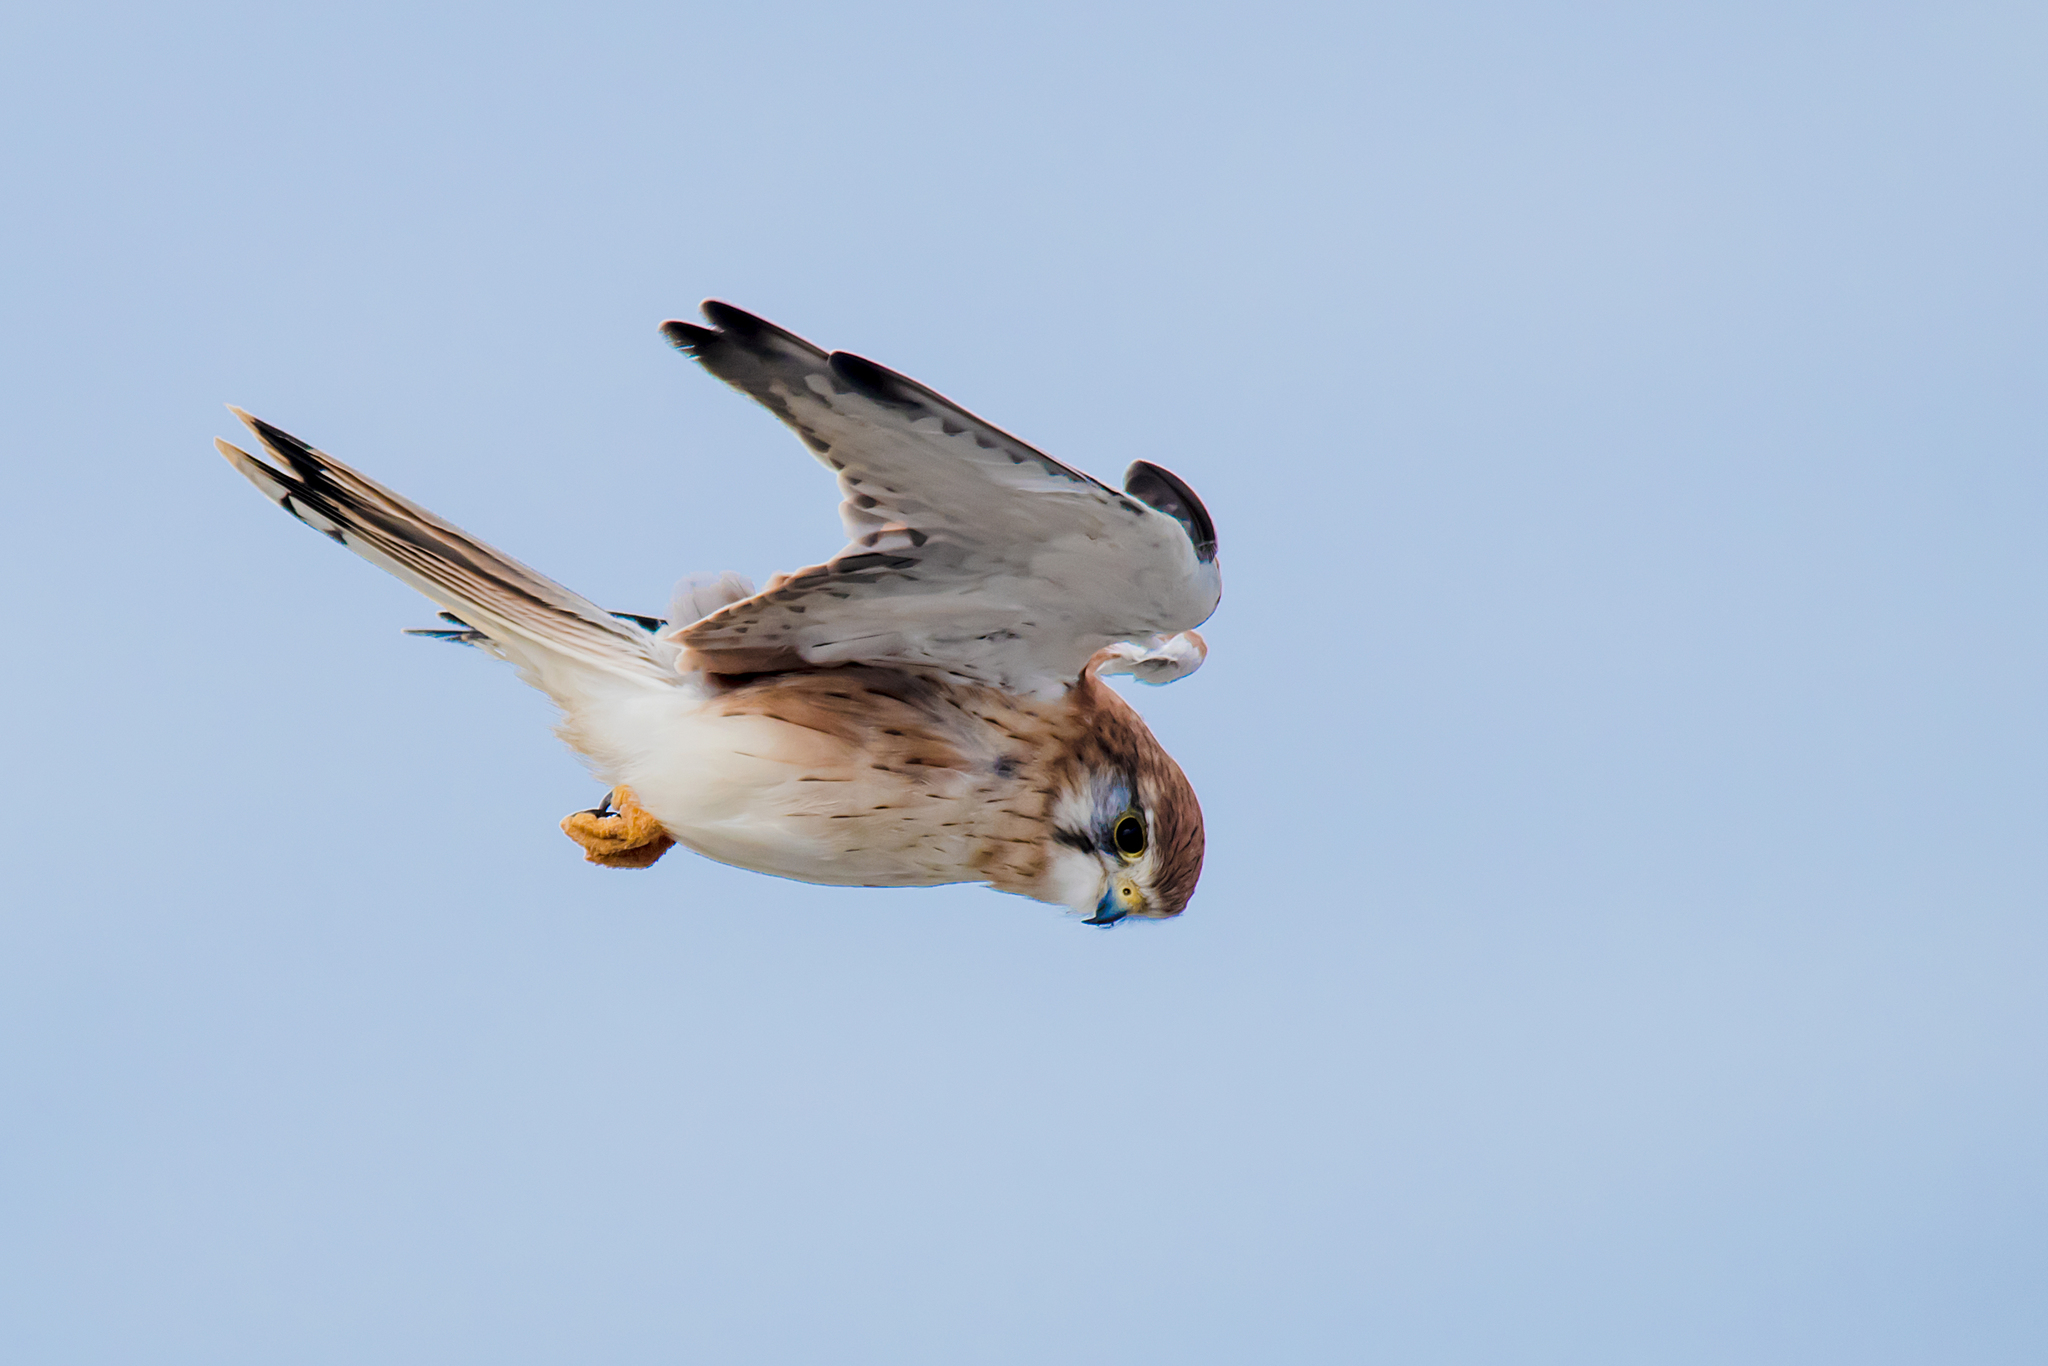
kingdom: Animalia
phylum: Chordata
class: Aves
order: Falconiformes
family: Falconidae
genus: Falco
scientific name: Falco cenchroides
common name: Nankeen kestrel
